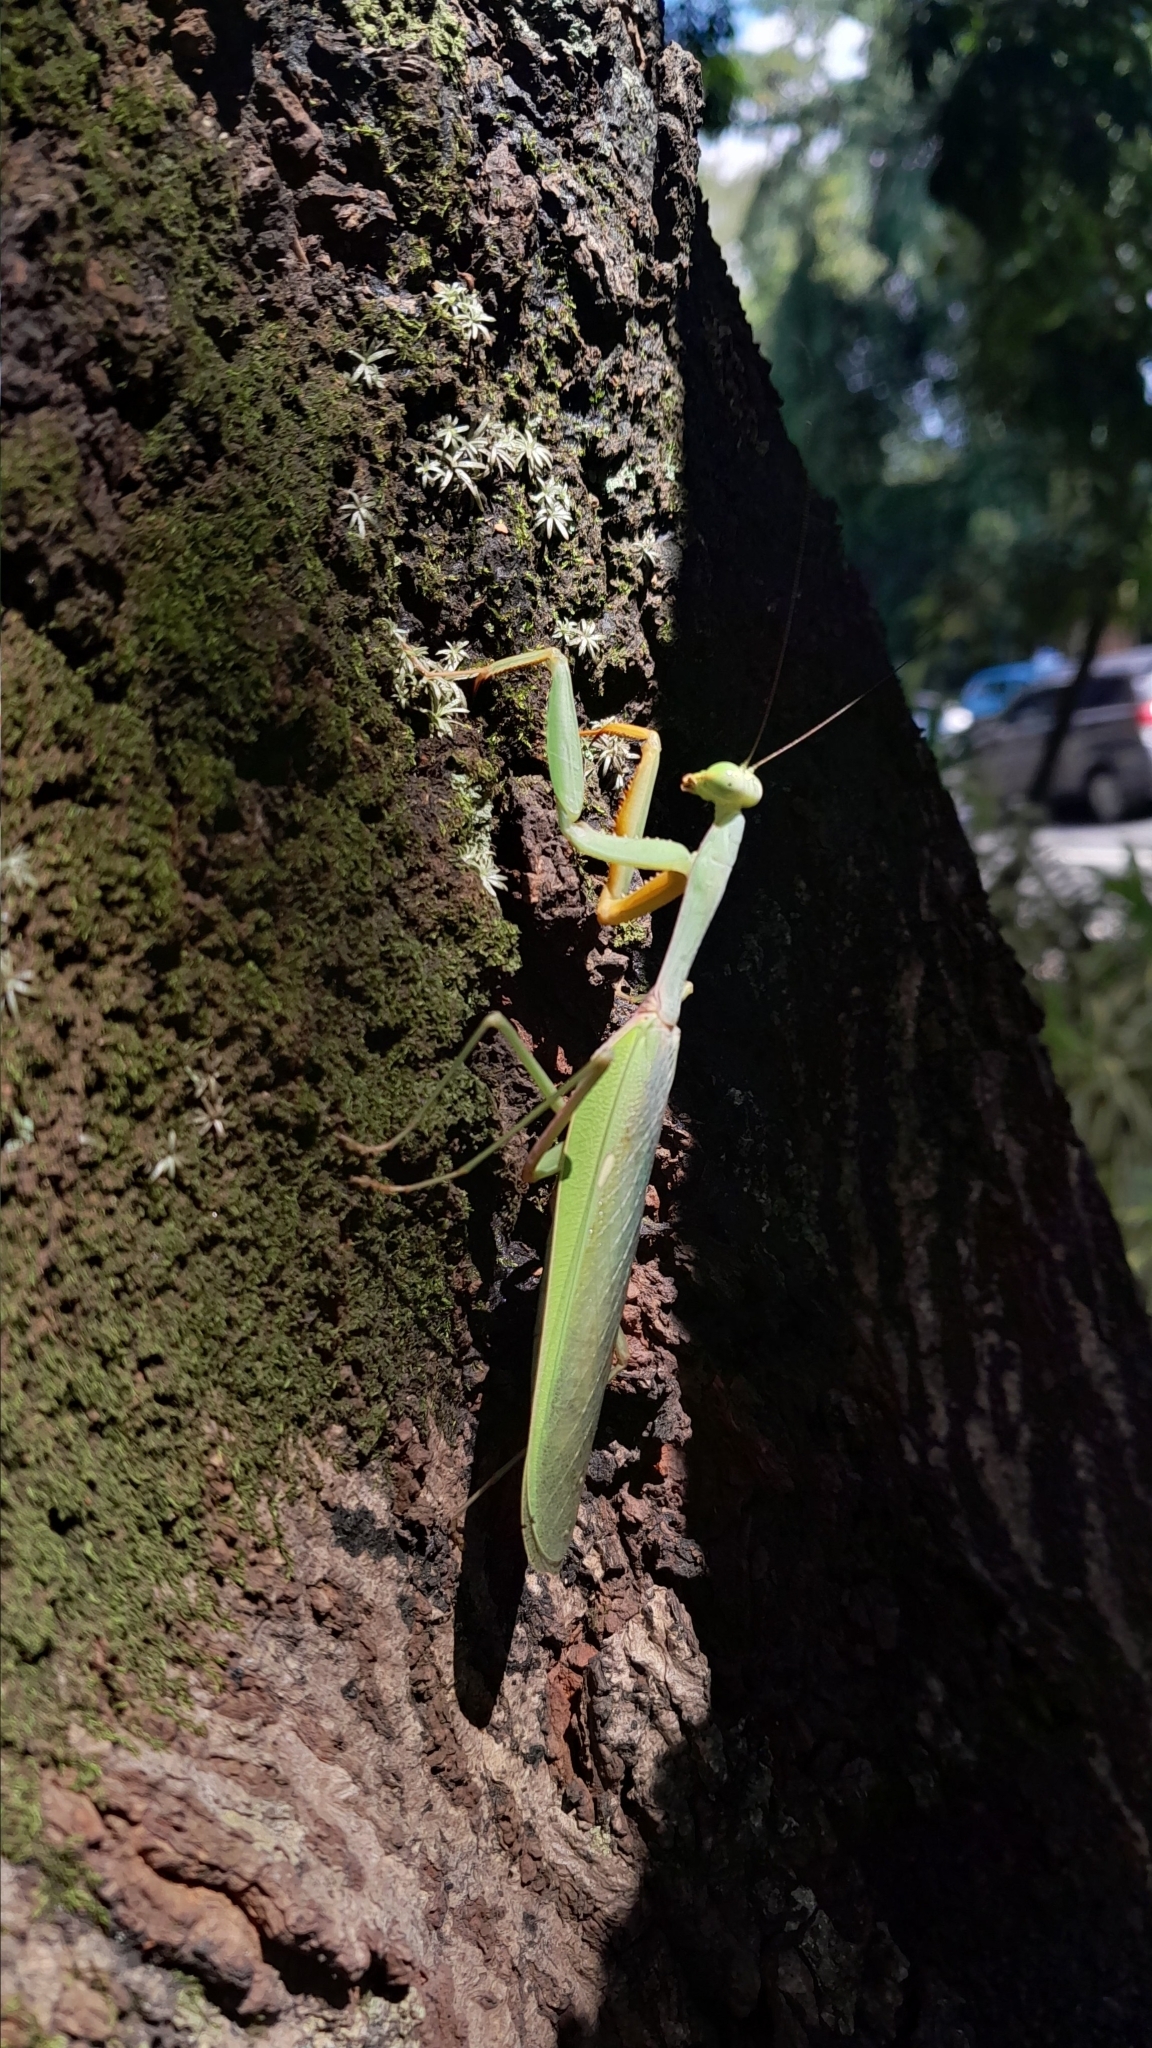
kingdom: Animalia
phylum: Arthropoda
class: Insecta
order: Mantodea
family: Mantidae
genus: Hierodula
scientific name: Hierodula venosa
